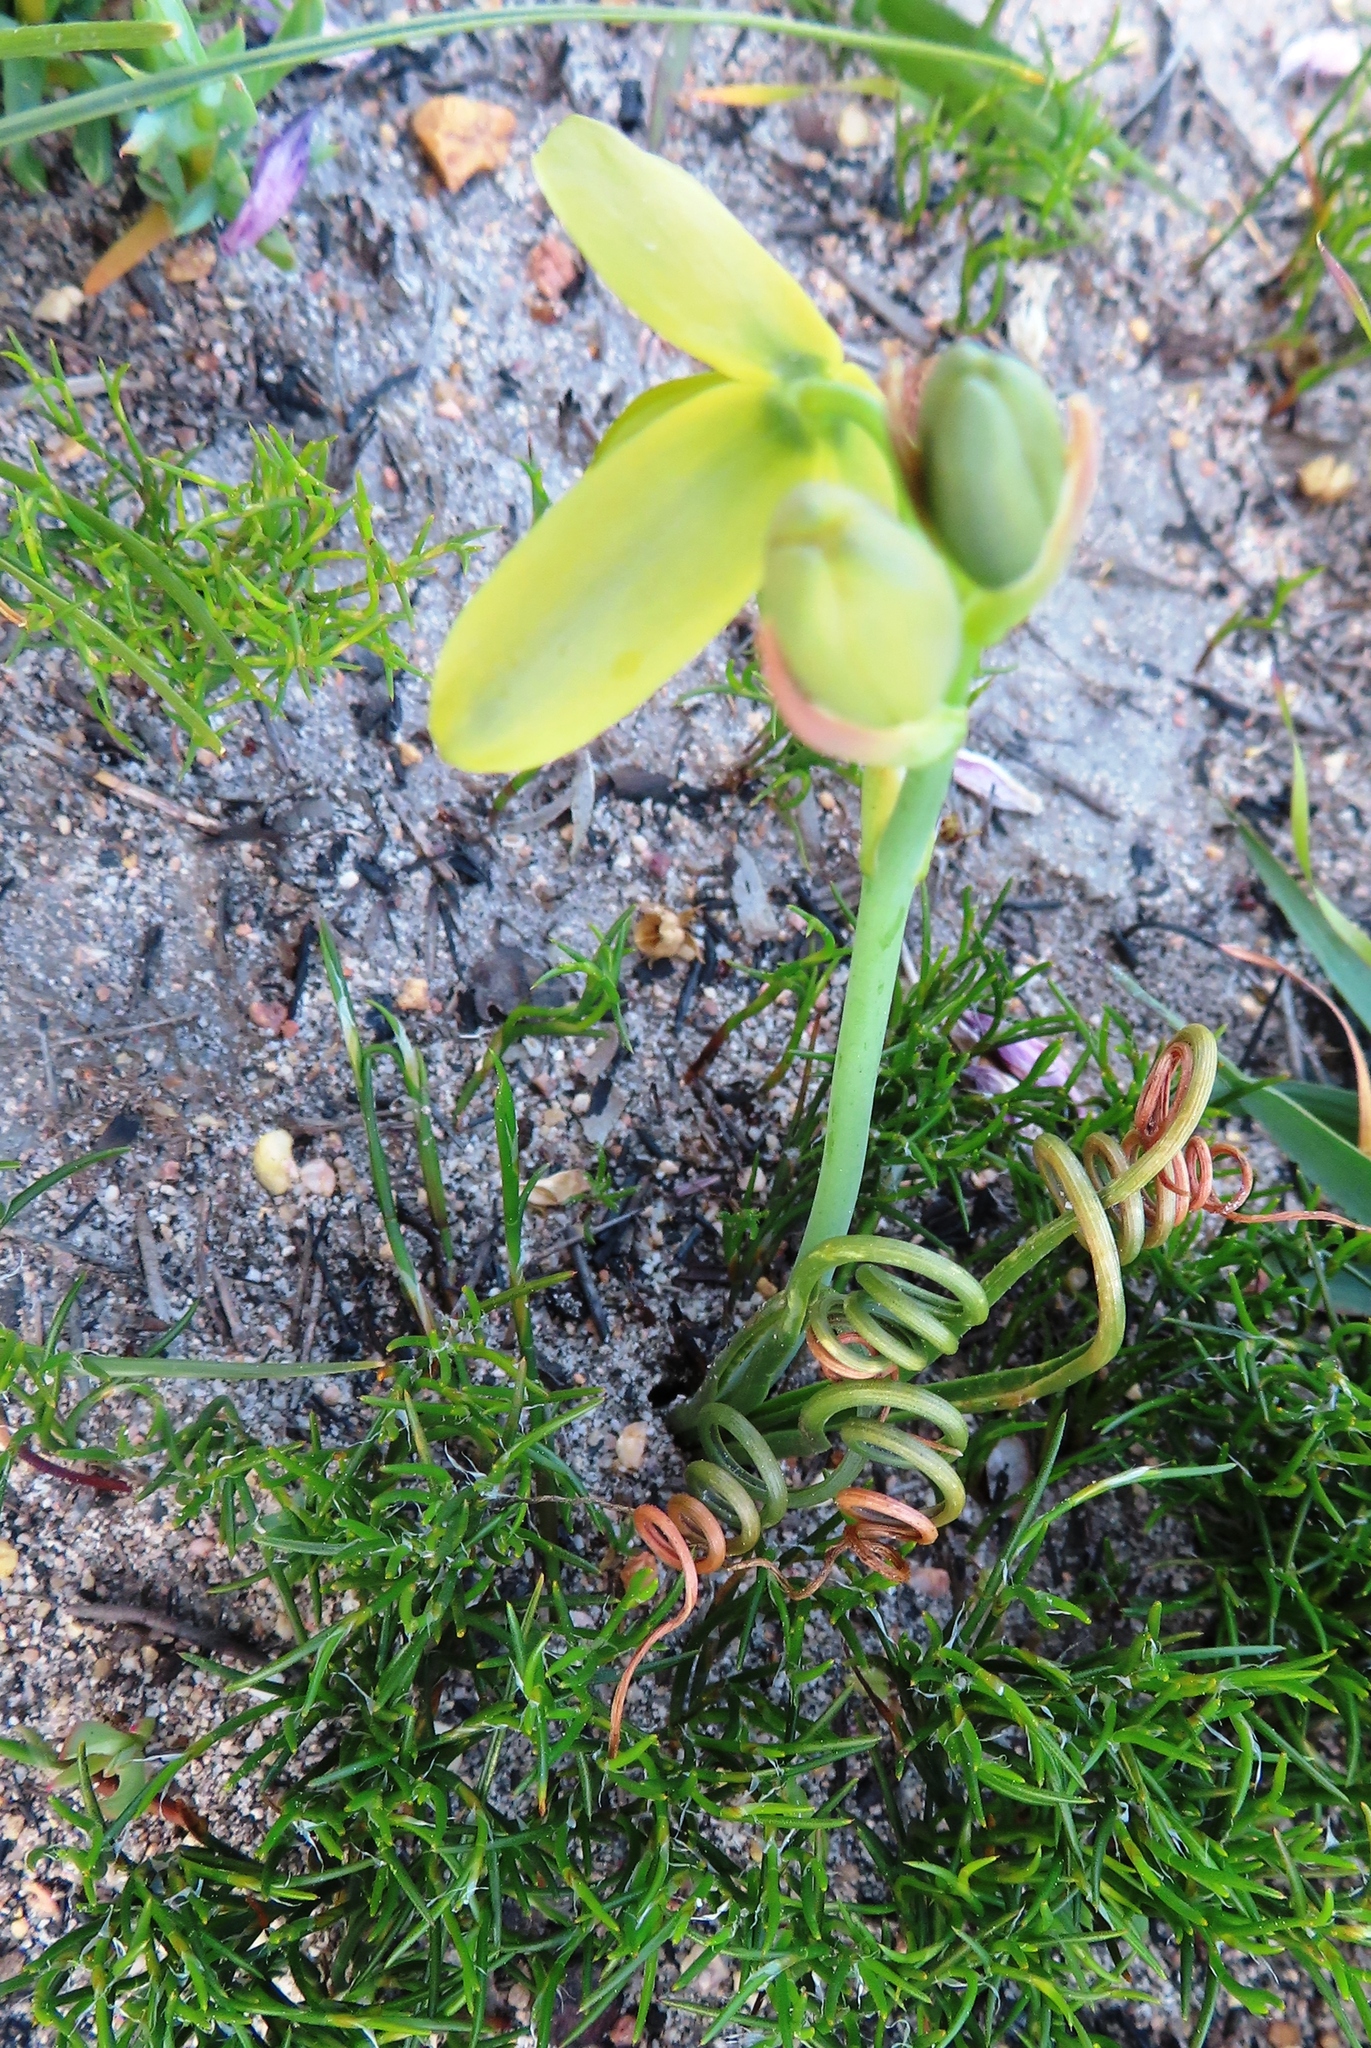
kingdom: Plantae
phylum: Tracheophyta
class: Liliopsida
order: Asparagales
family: Asparagaceae
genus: Albuca
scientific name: Albuca spiralis
